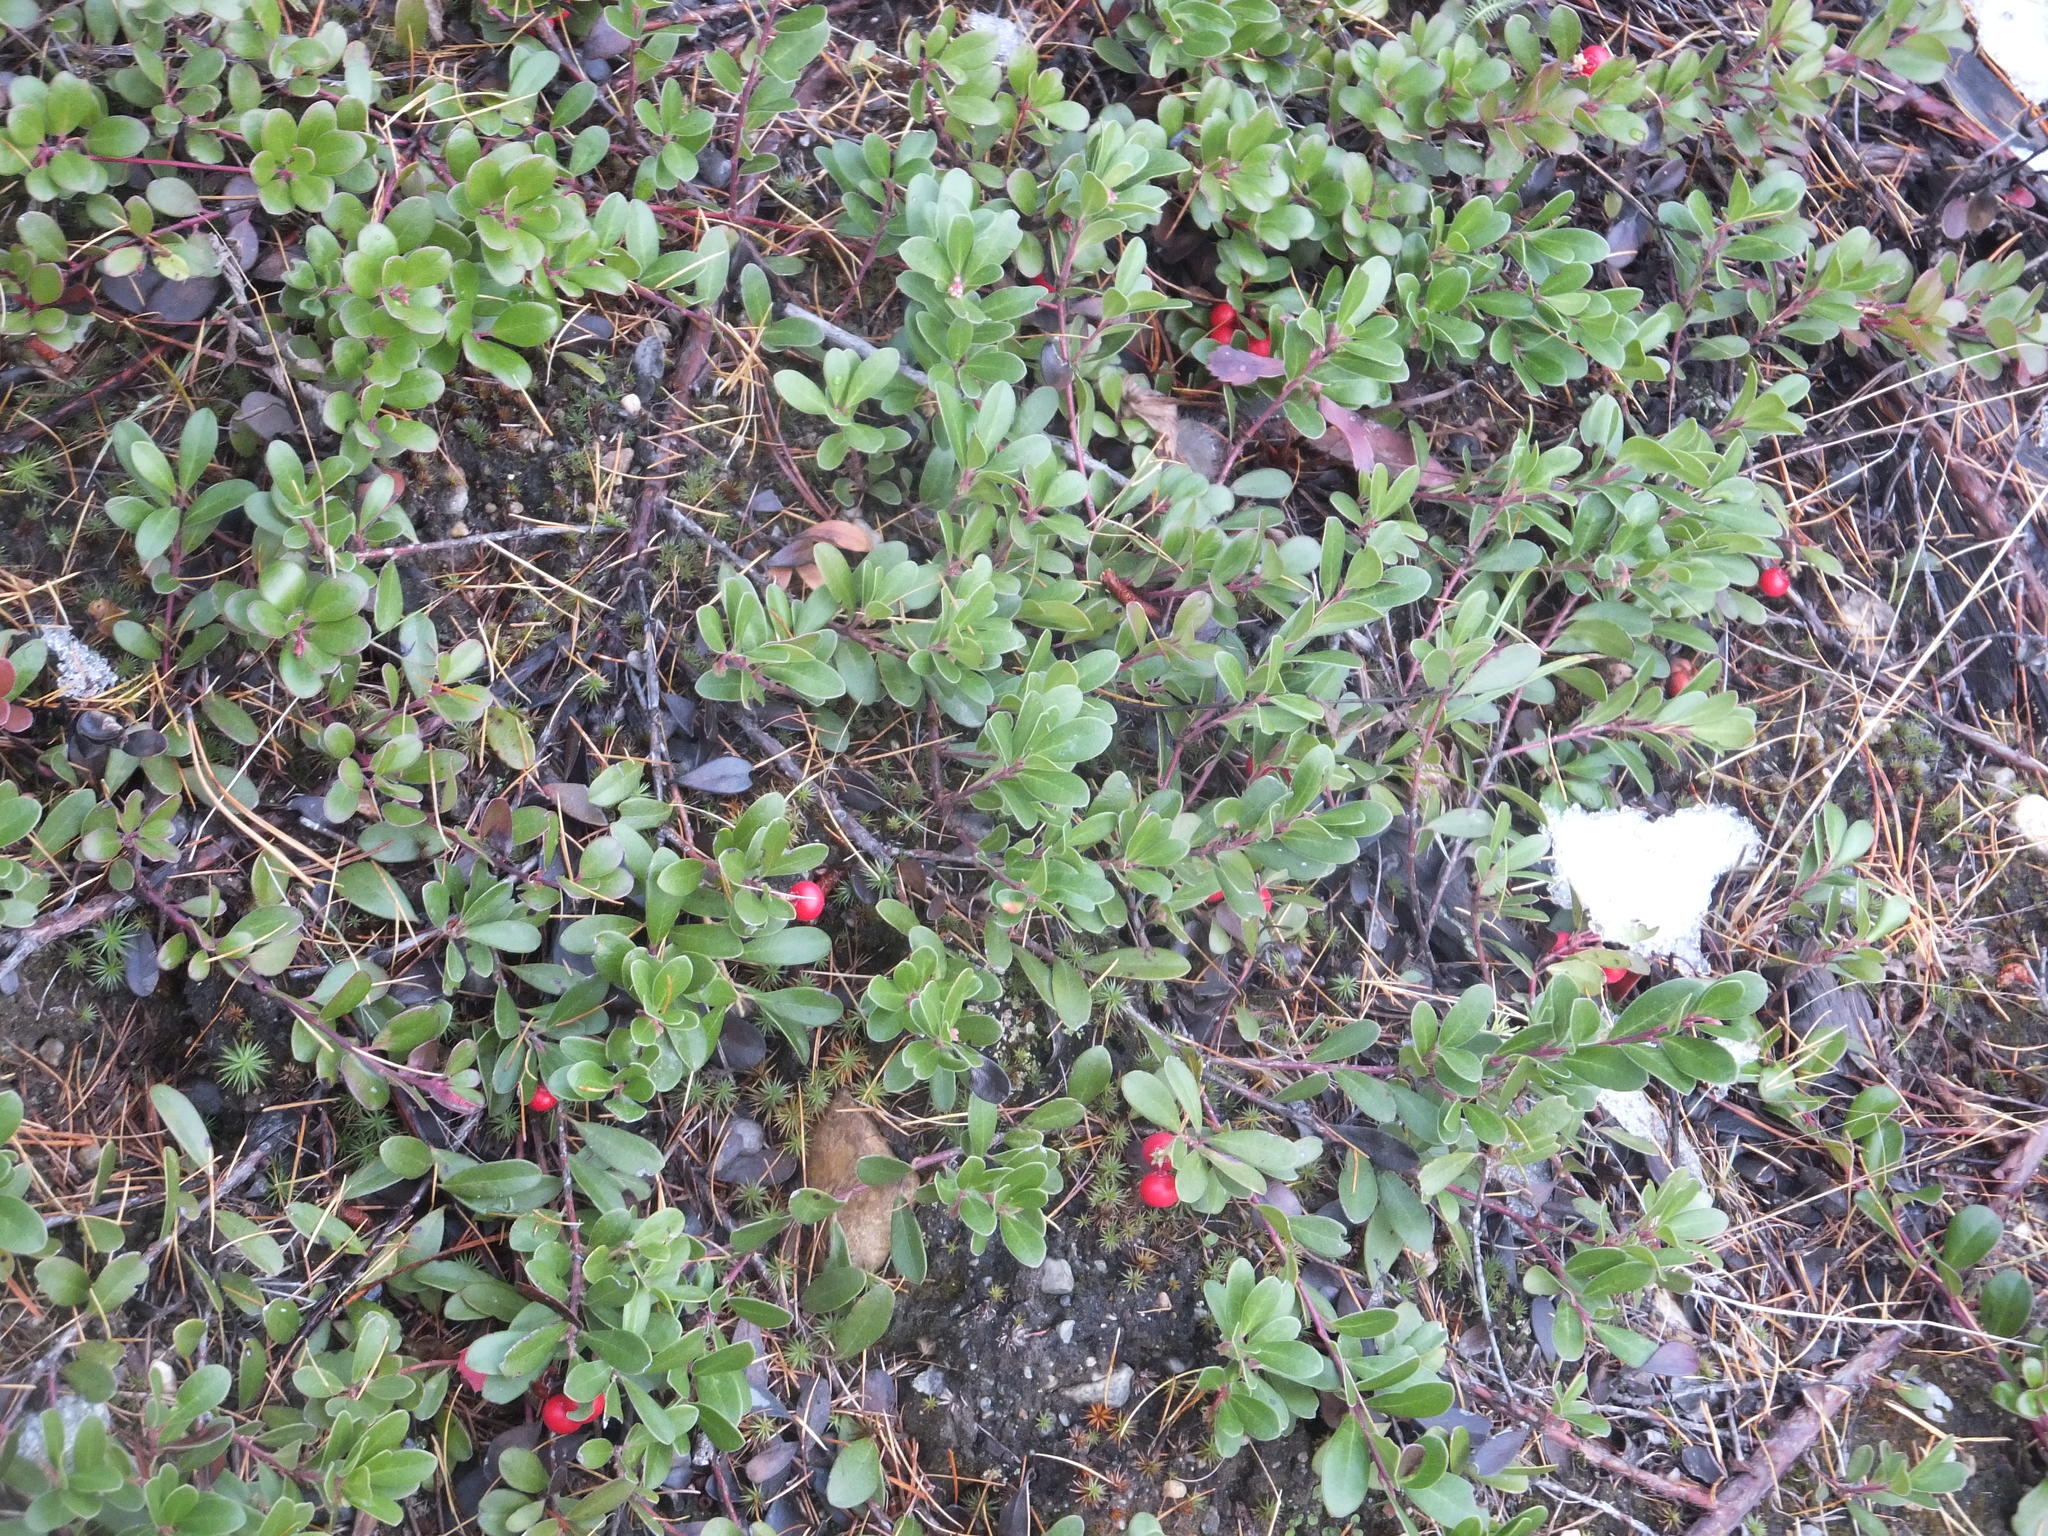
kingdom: Plantae
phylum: Tracheophyta
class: Magnoliopsida
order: Ericales
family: Ericaceae
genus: Arctostaphylos
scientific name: Arctostaphylos uva-ursi
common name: Bearberry
